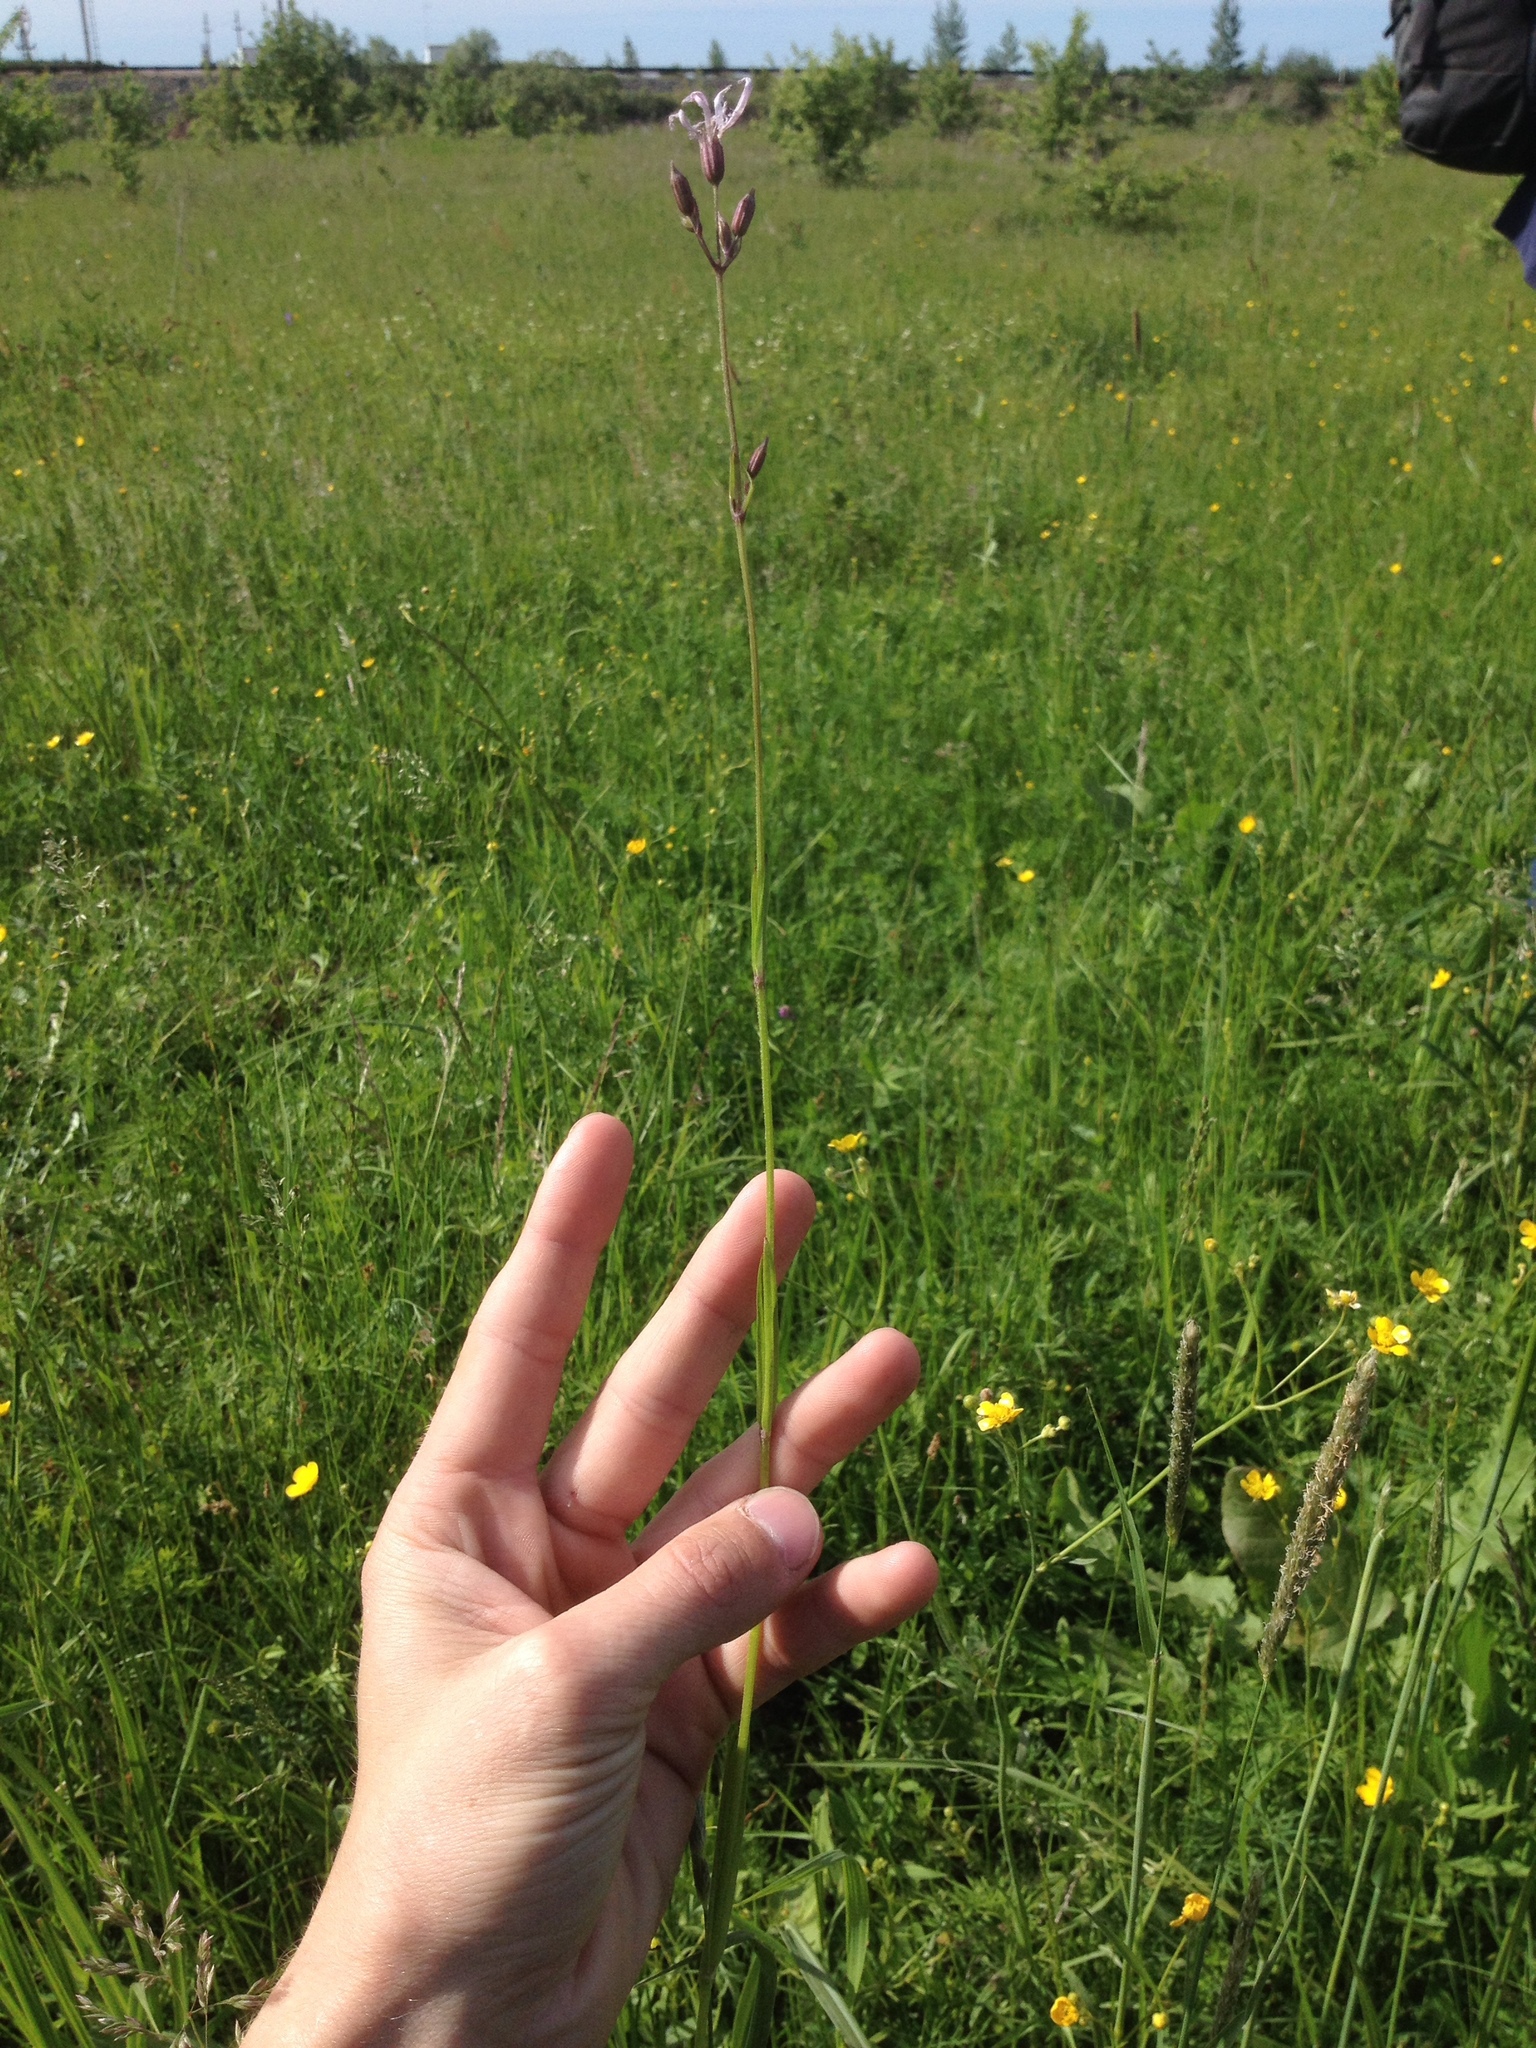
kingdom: Plantae
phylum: Tracheophyta
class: Magnoliopsida
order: Caryophyllales
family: Caryophyllaceae
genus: Silene
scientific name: Silene flos-cuculi
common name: Ragged-robin
